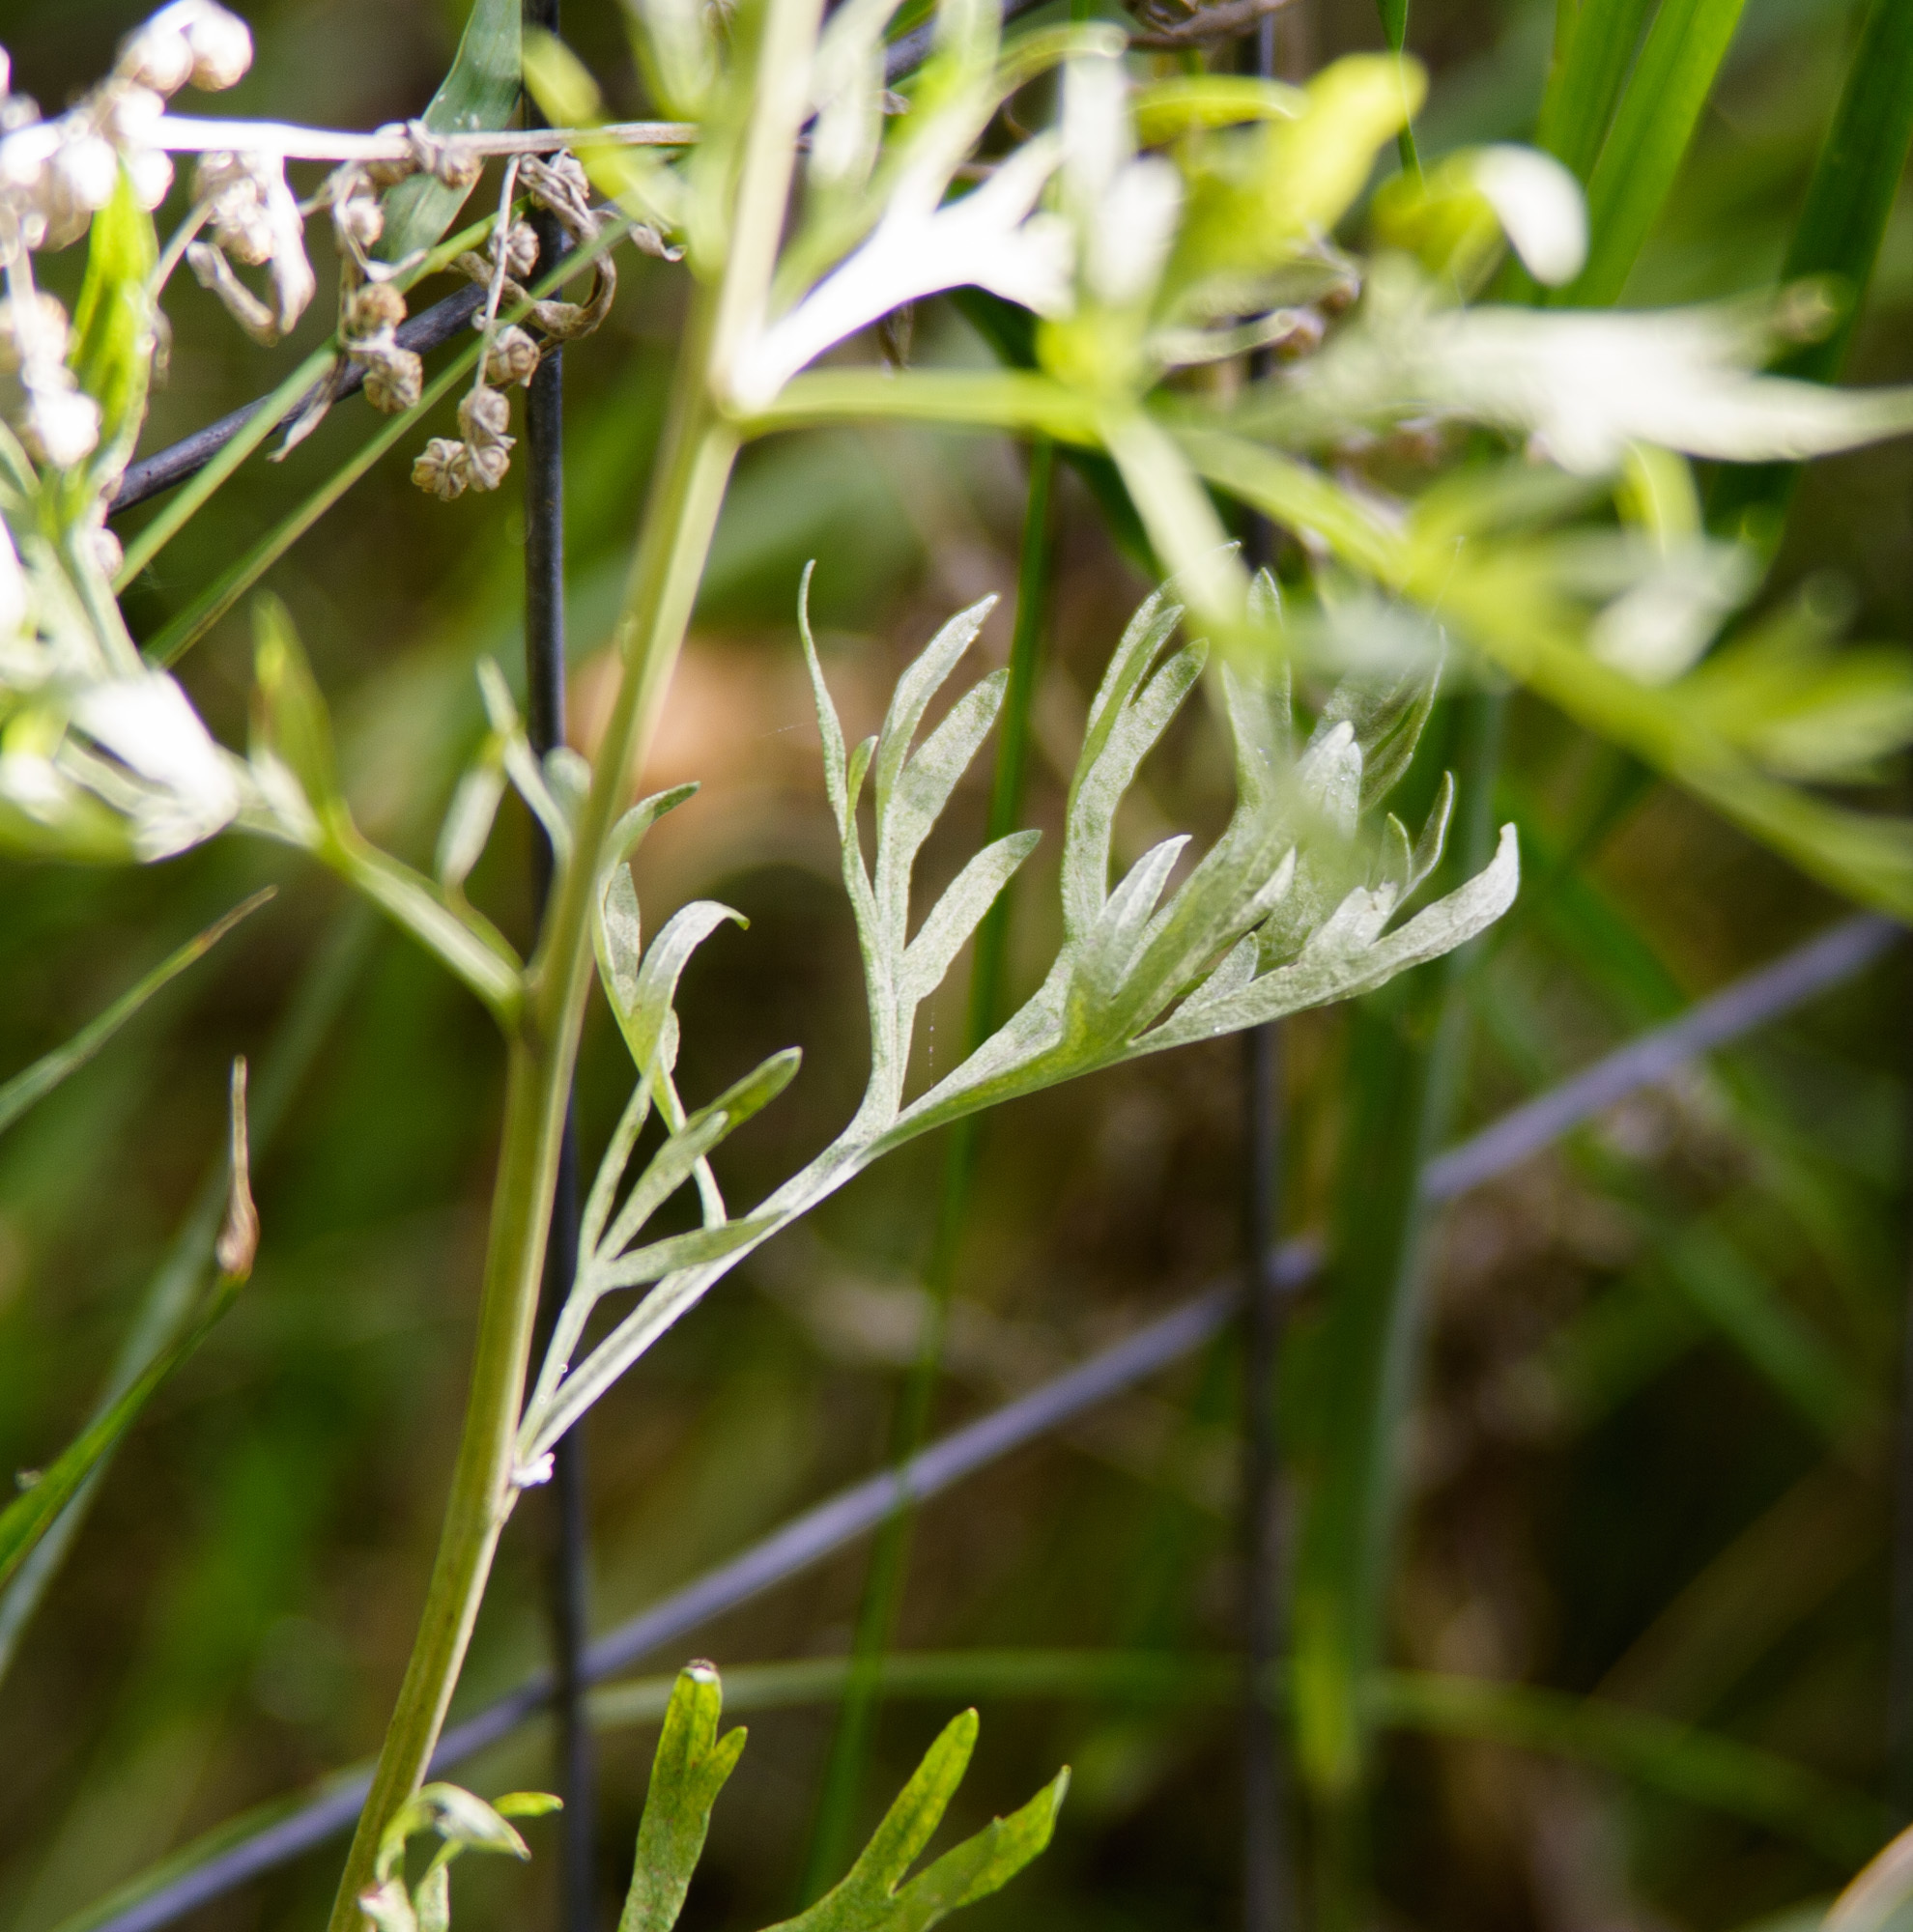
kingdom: Plantae
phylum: Tracheophyta
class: Magnoliopsida
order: Asterales
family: Asteraceae
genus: Artemisia
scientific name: Artemisia absinthium
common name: Wormwood
